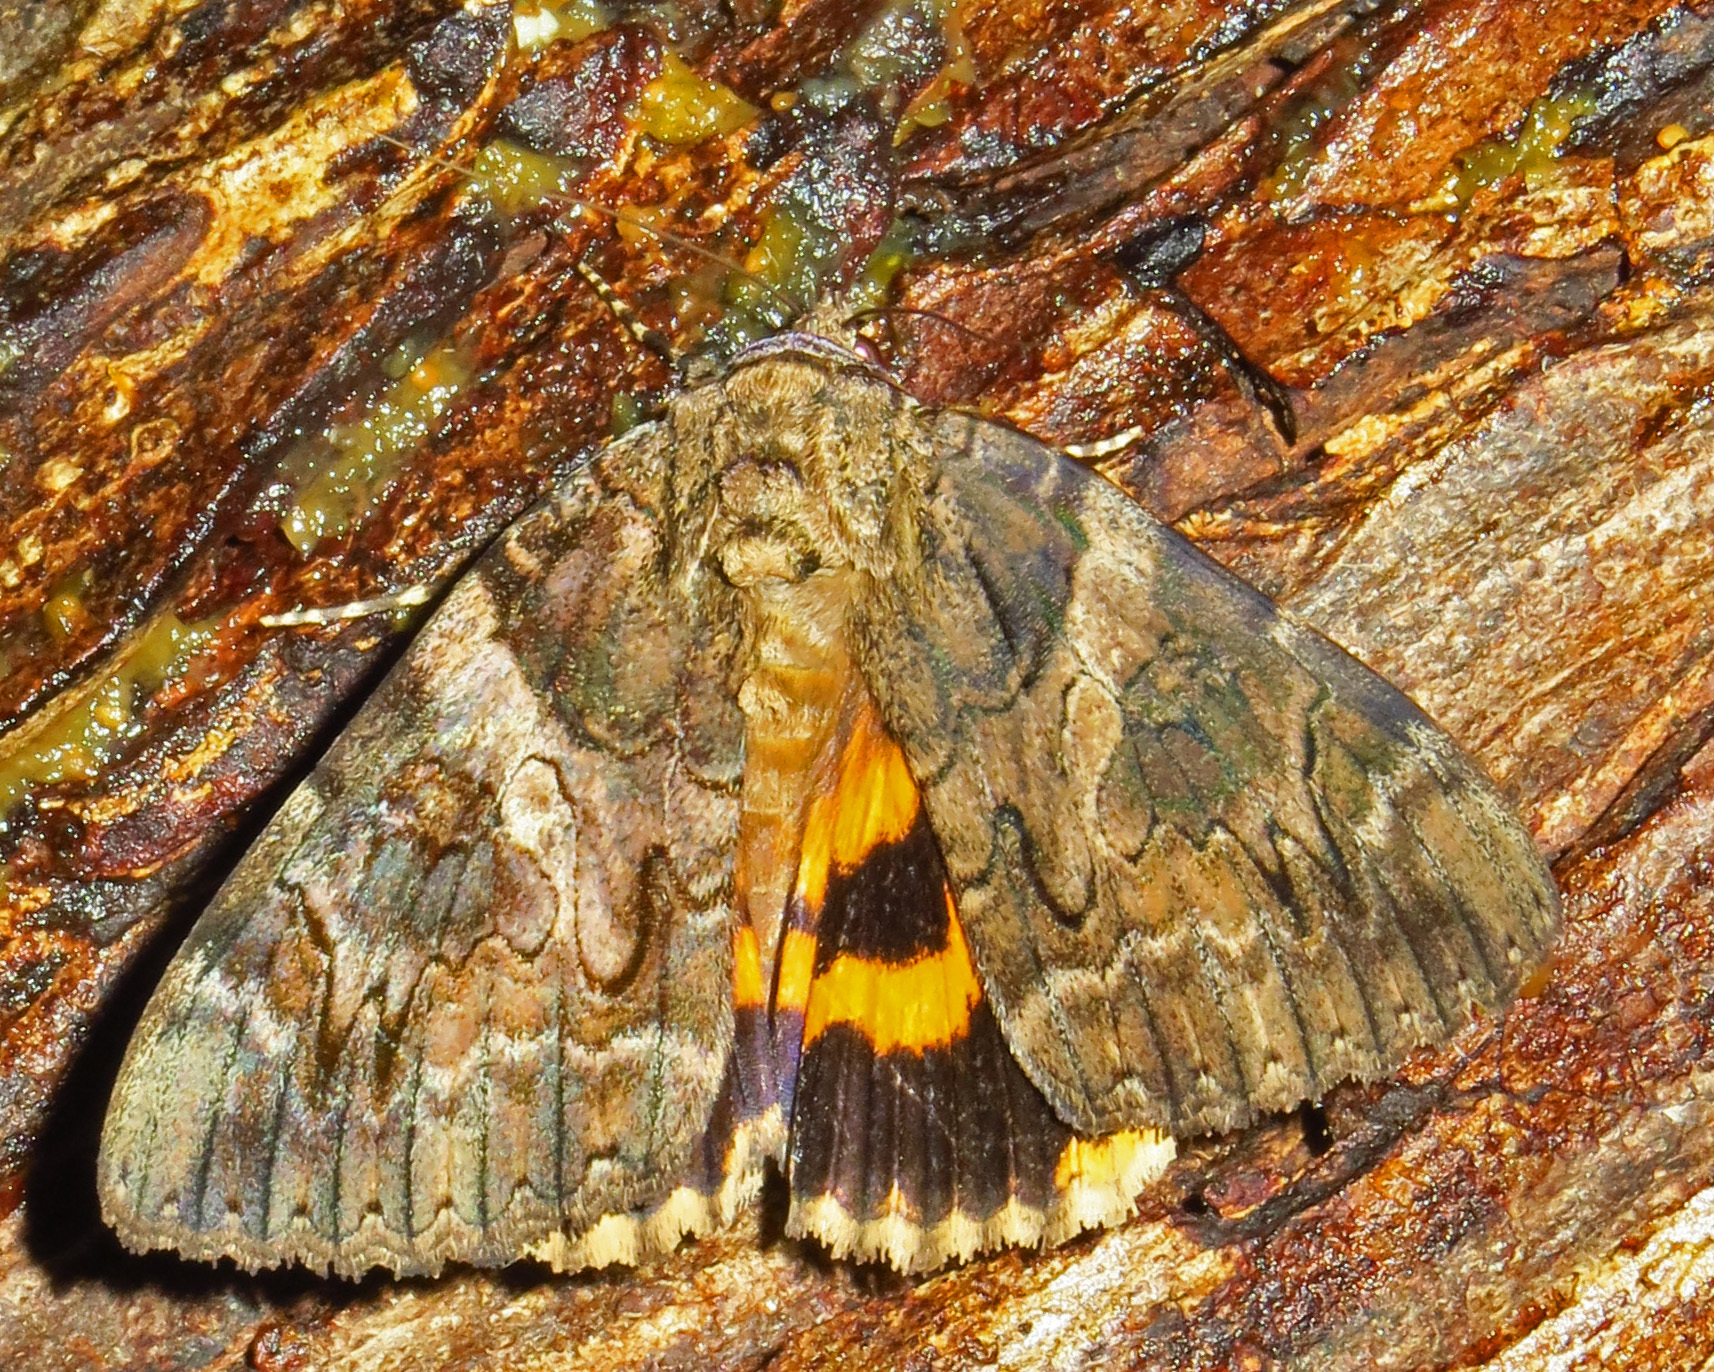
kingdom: Animalia
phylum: Arthropoda
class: Insecta
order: Lepidoptera
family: Erebidae
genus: Catocala
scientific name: Catocala piatrix
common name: The penitent underwing
